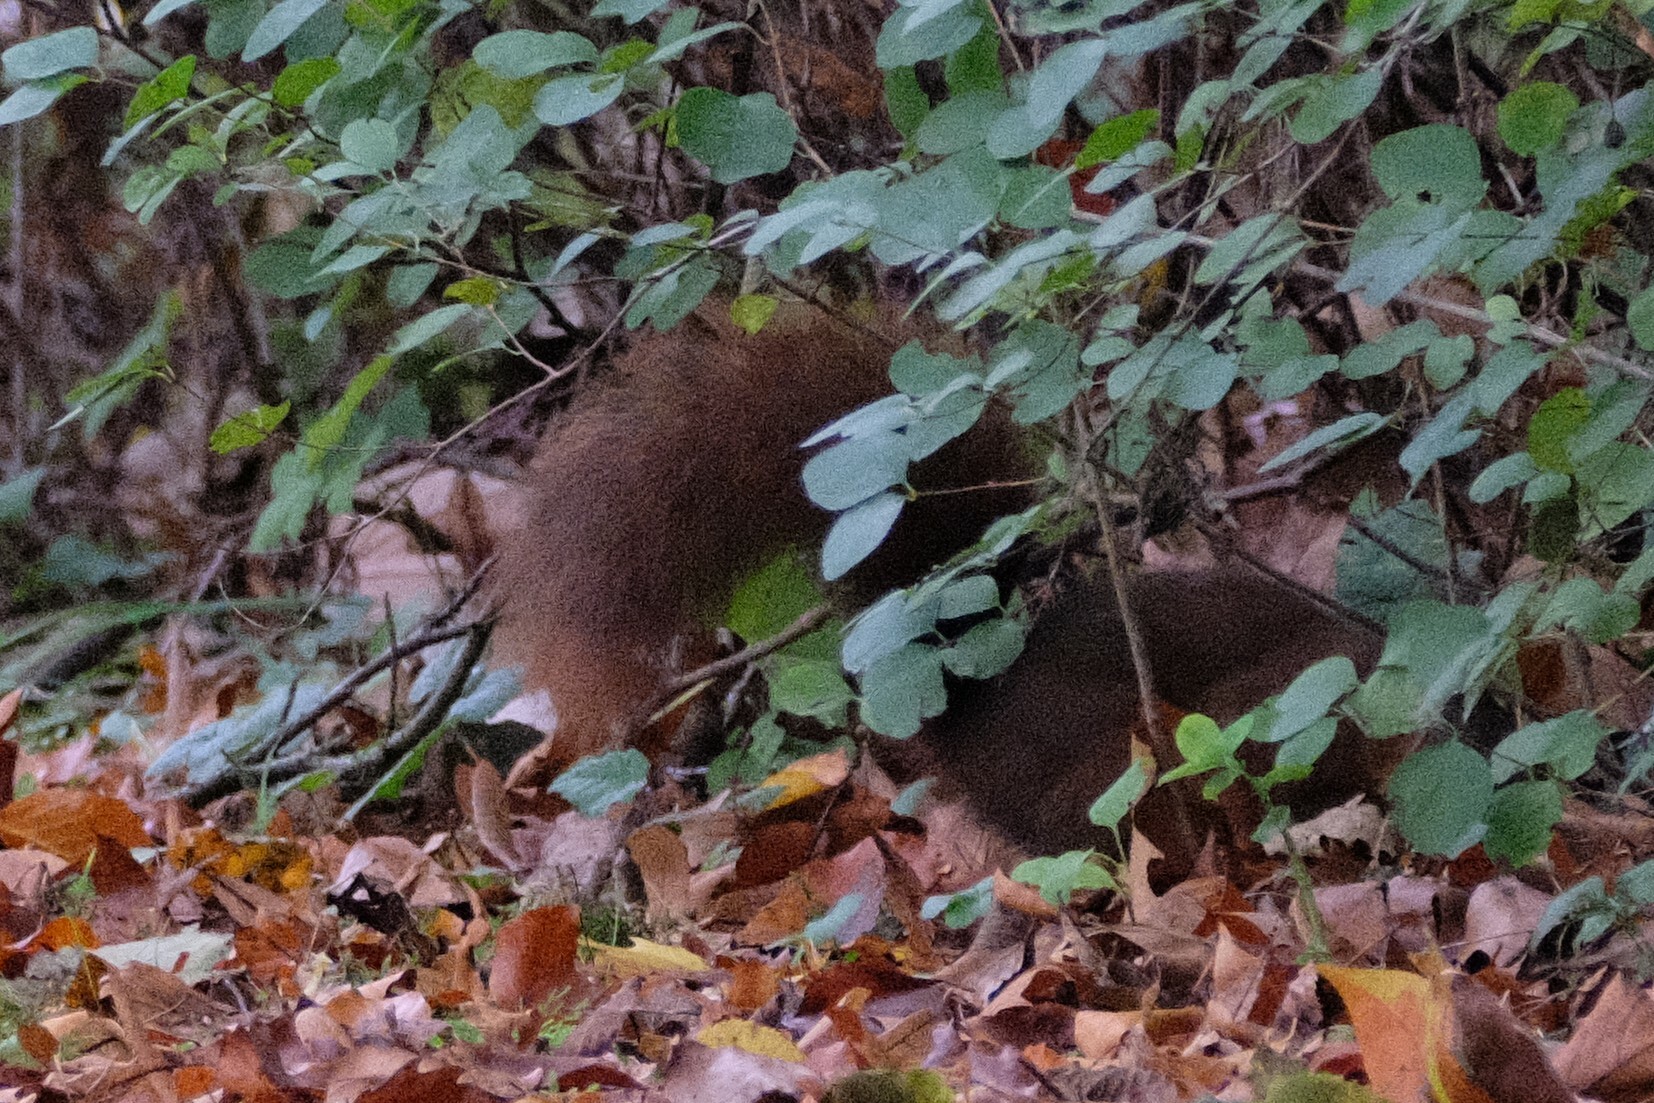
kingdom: Animalia
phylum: Chordata
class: Mammalia
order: Rodentia
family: Sciuridae
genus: Sciurus
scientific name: Sciurus vulgaris
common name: Eurasian red squirrel
